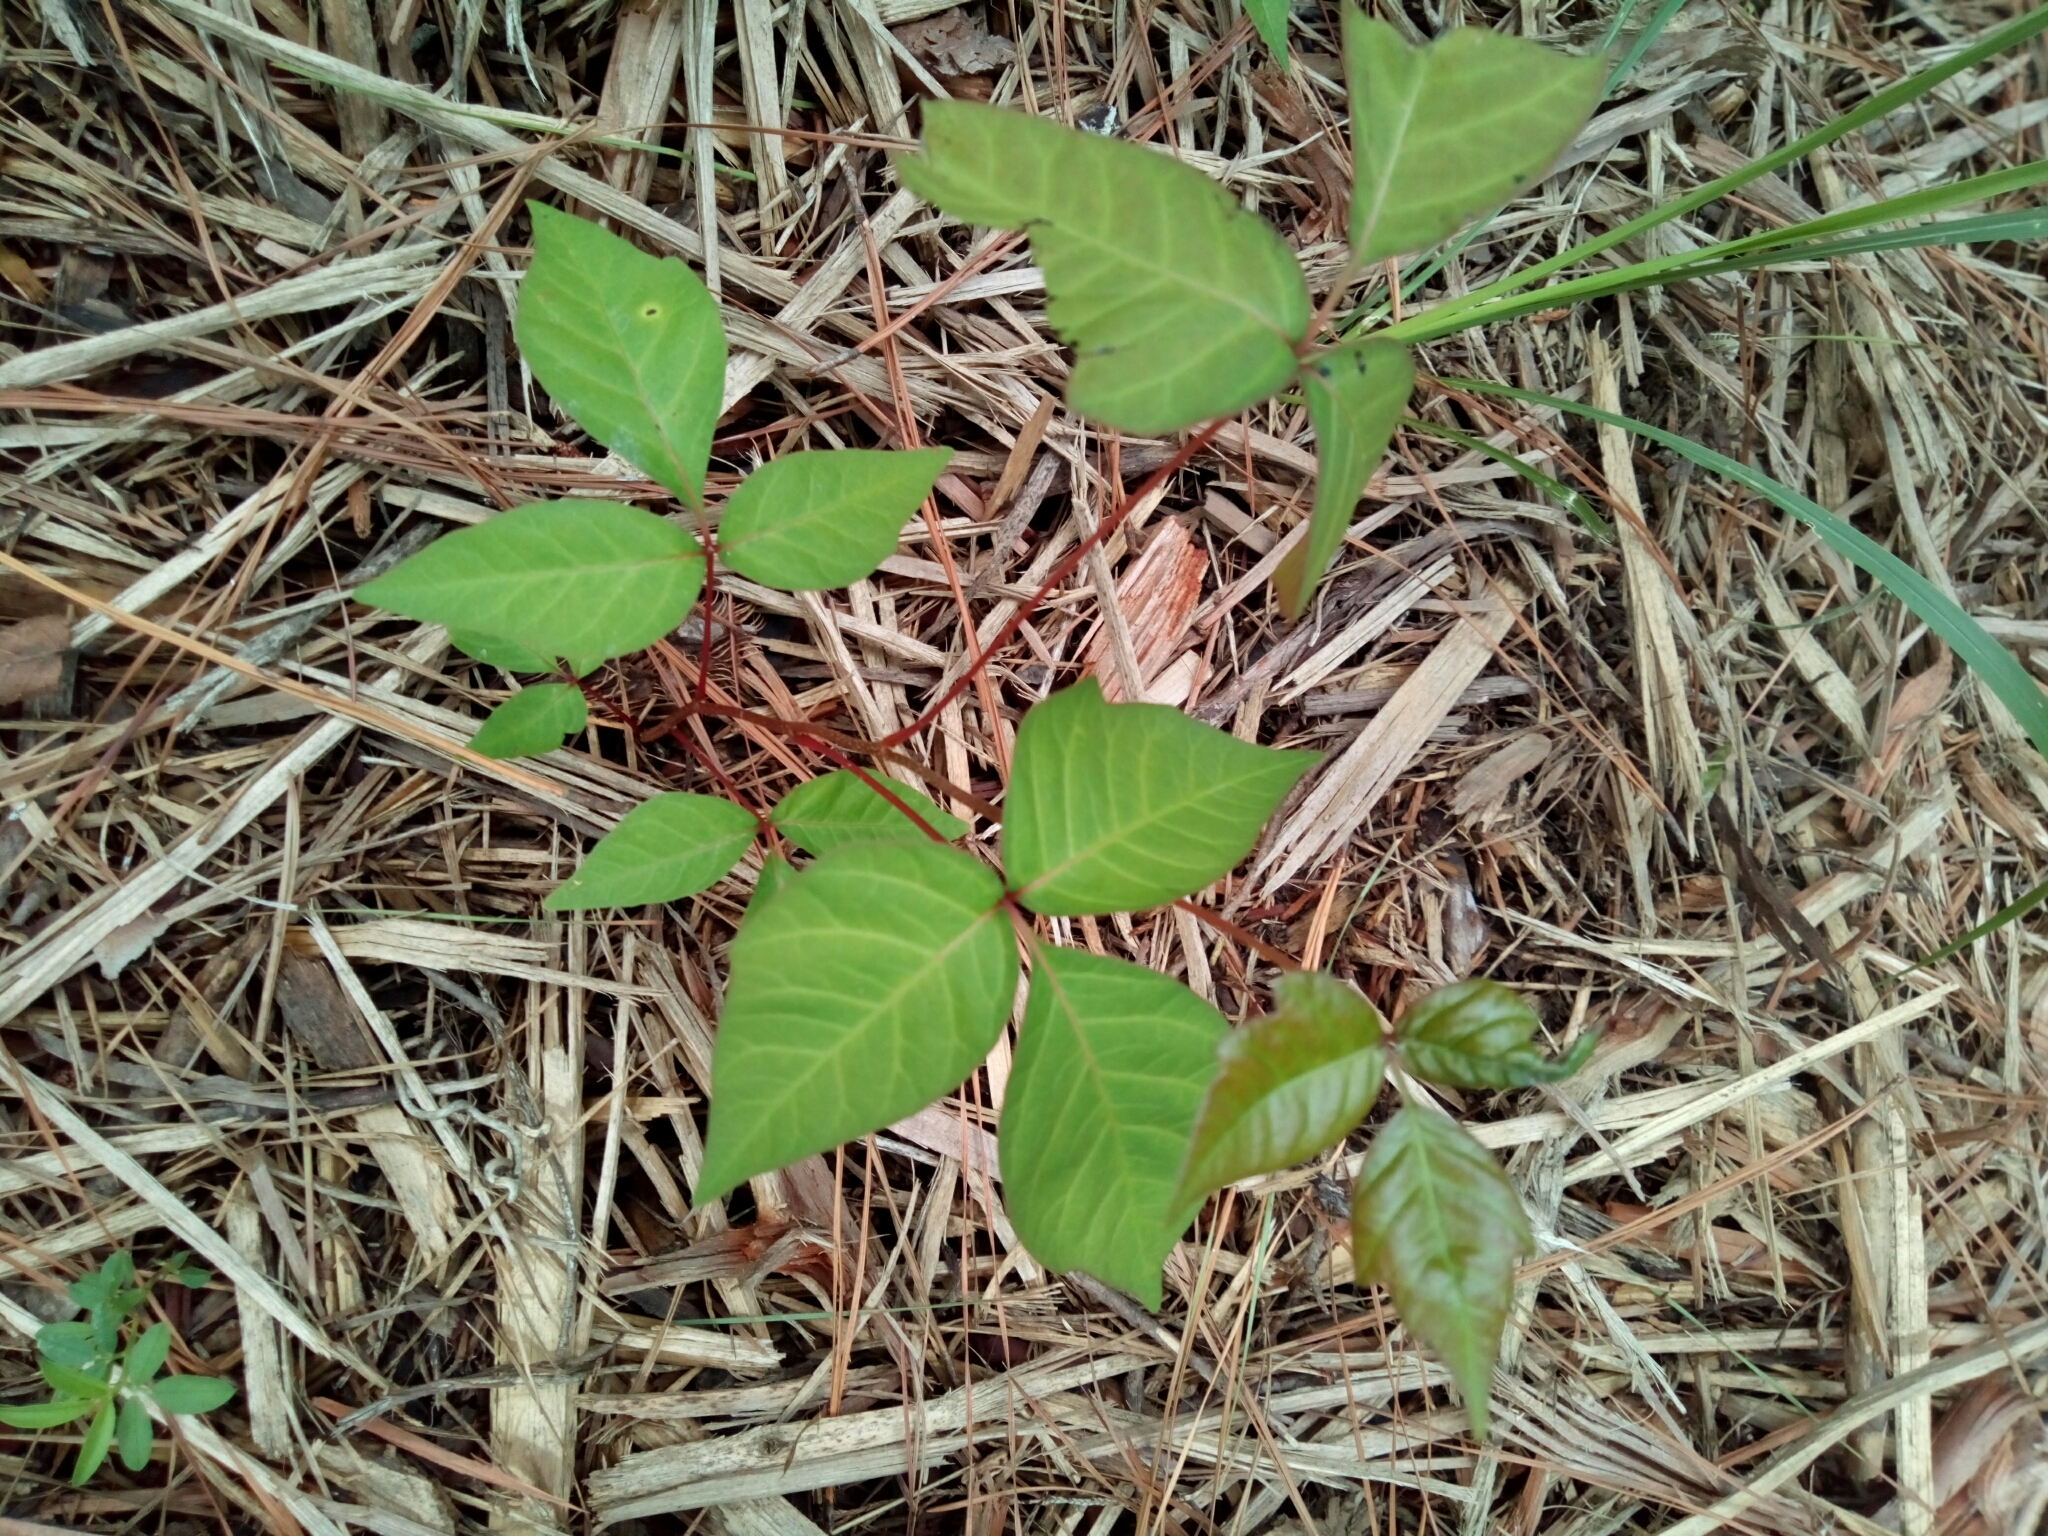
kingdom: Plantae
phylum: Tracheophyta
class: Magnoliopsida
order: Sapindales
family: Anacardiaceae
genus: Toxicodendron
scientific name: Toxicodendron radicans
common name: Poison ivy
